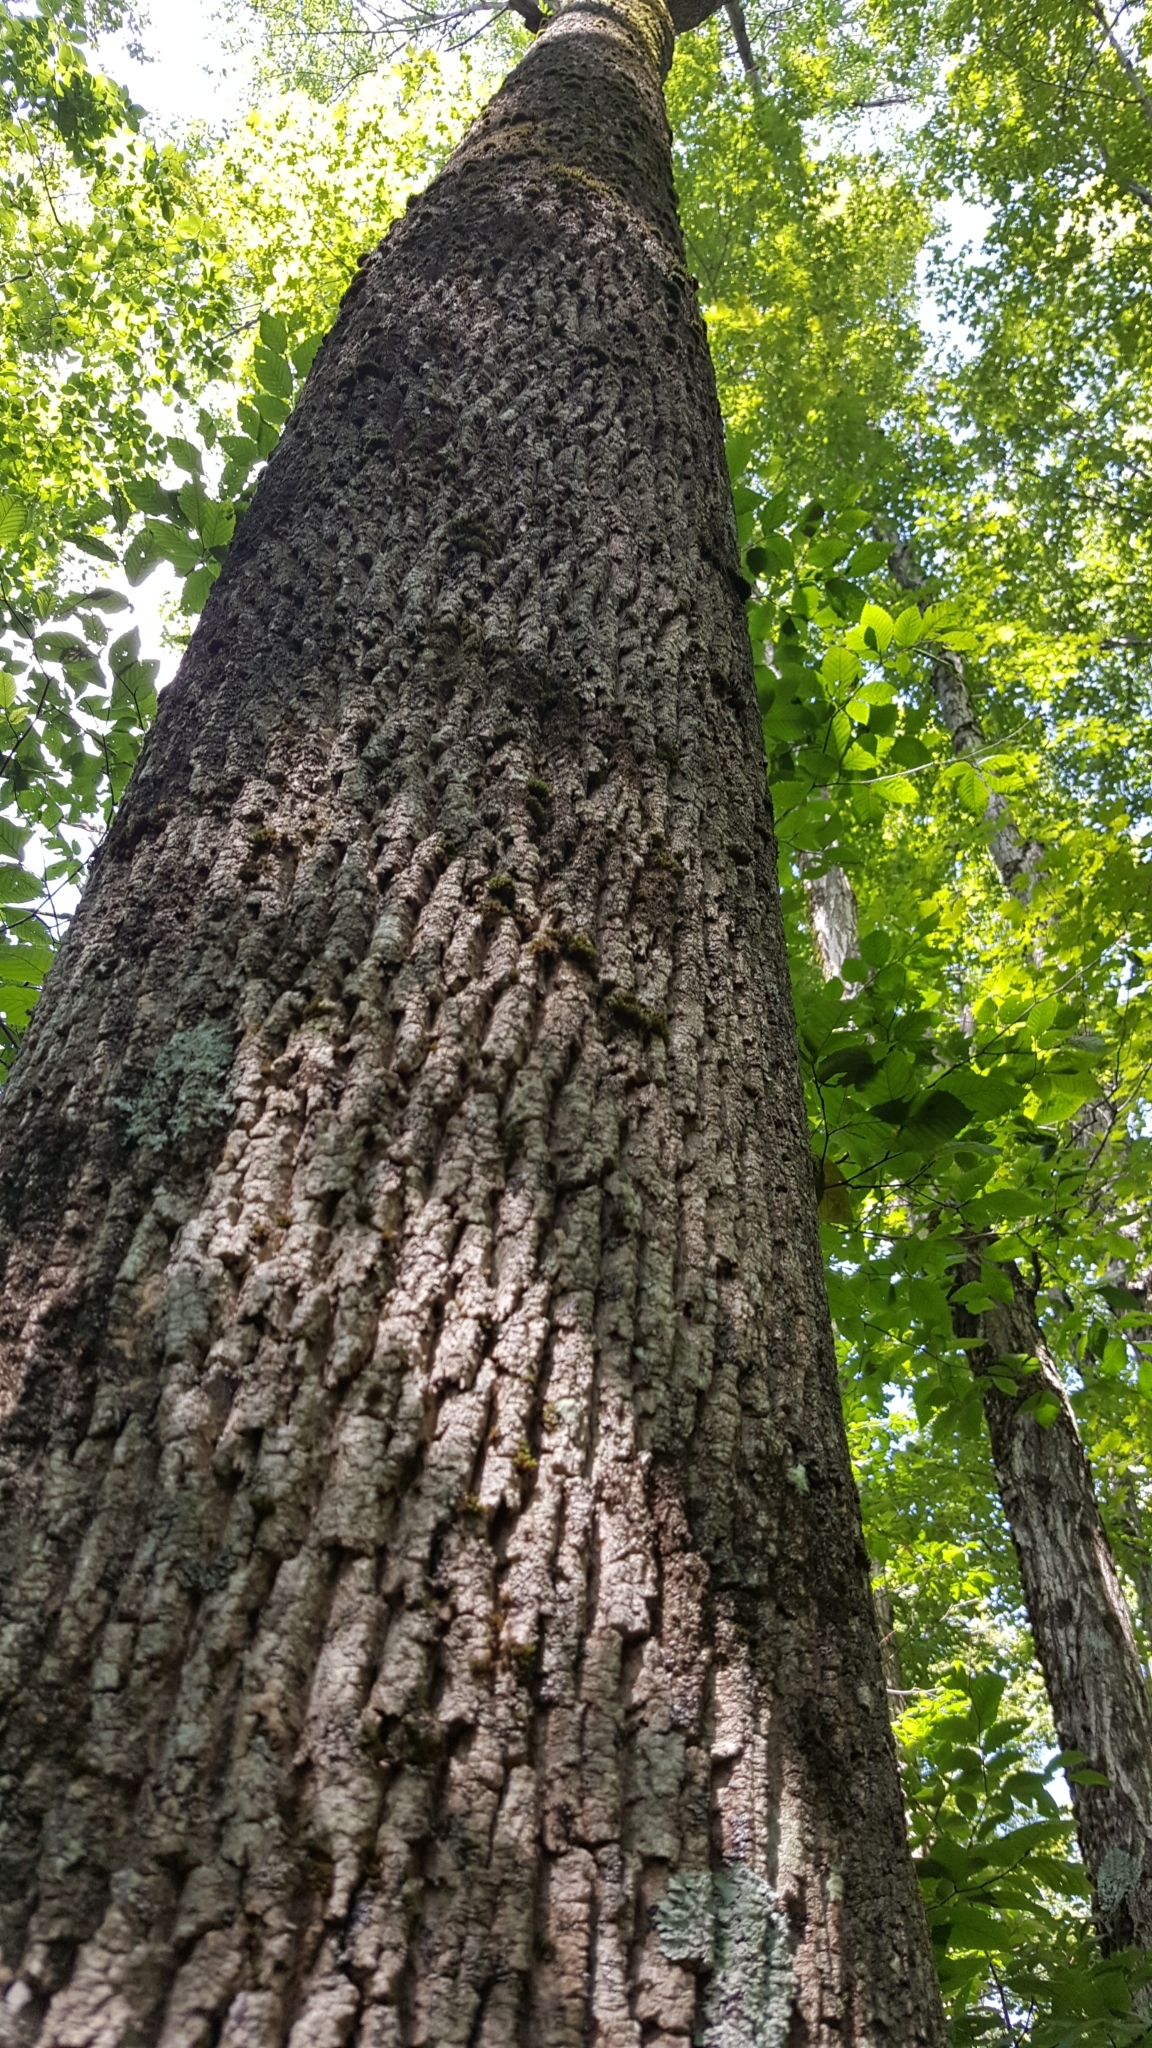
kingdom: Plantae
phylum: Tracheophyta
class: Magnoliopsida
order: Lamiales
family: Oleaceae
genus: Fraxinus
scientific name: Fraxinus americana
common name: White ash
